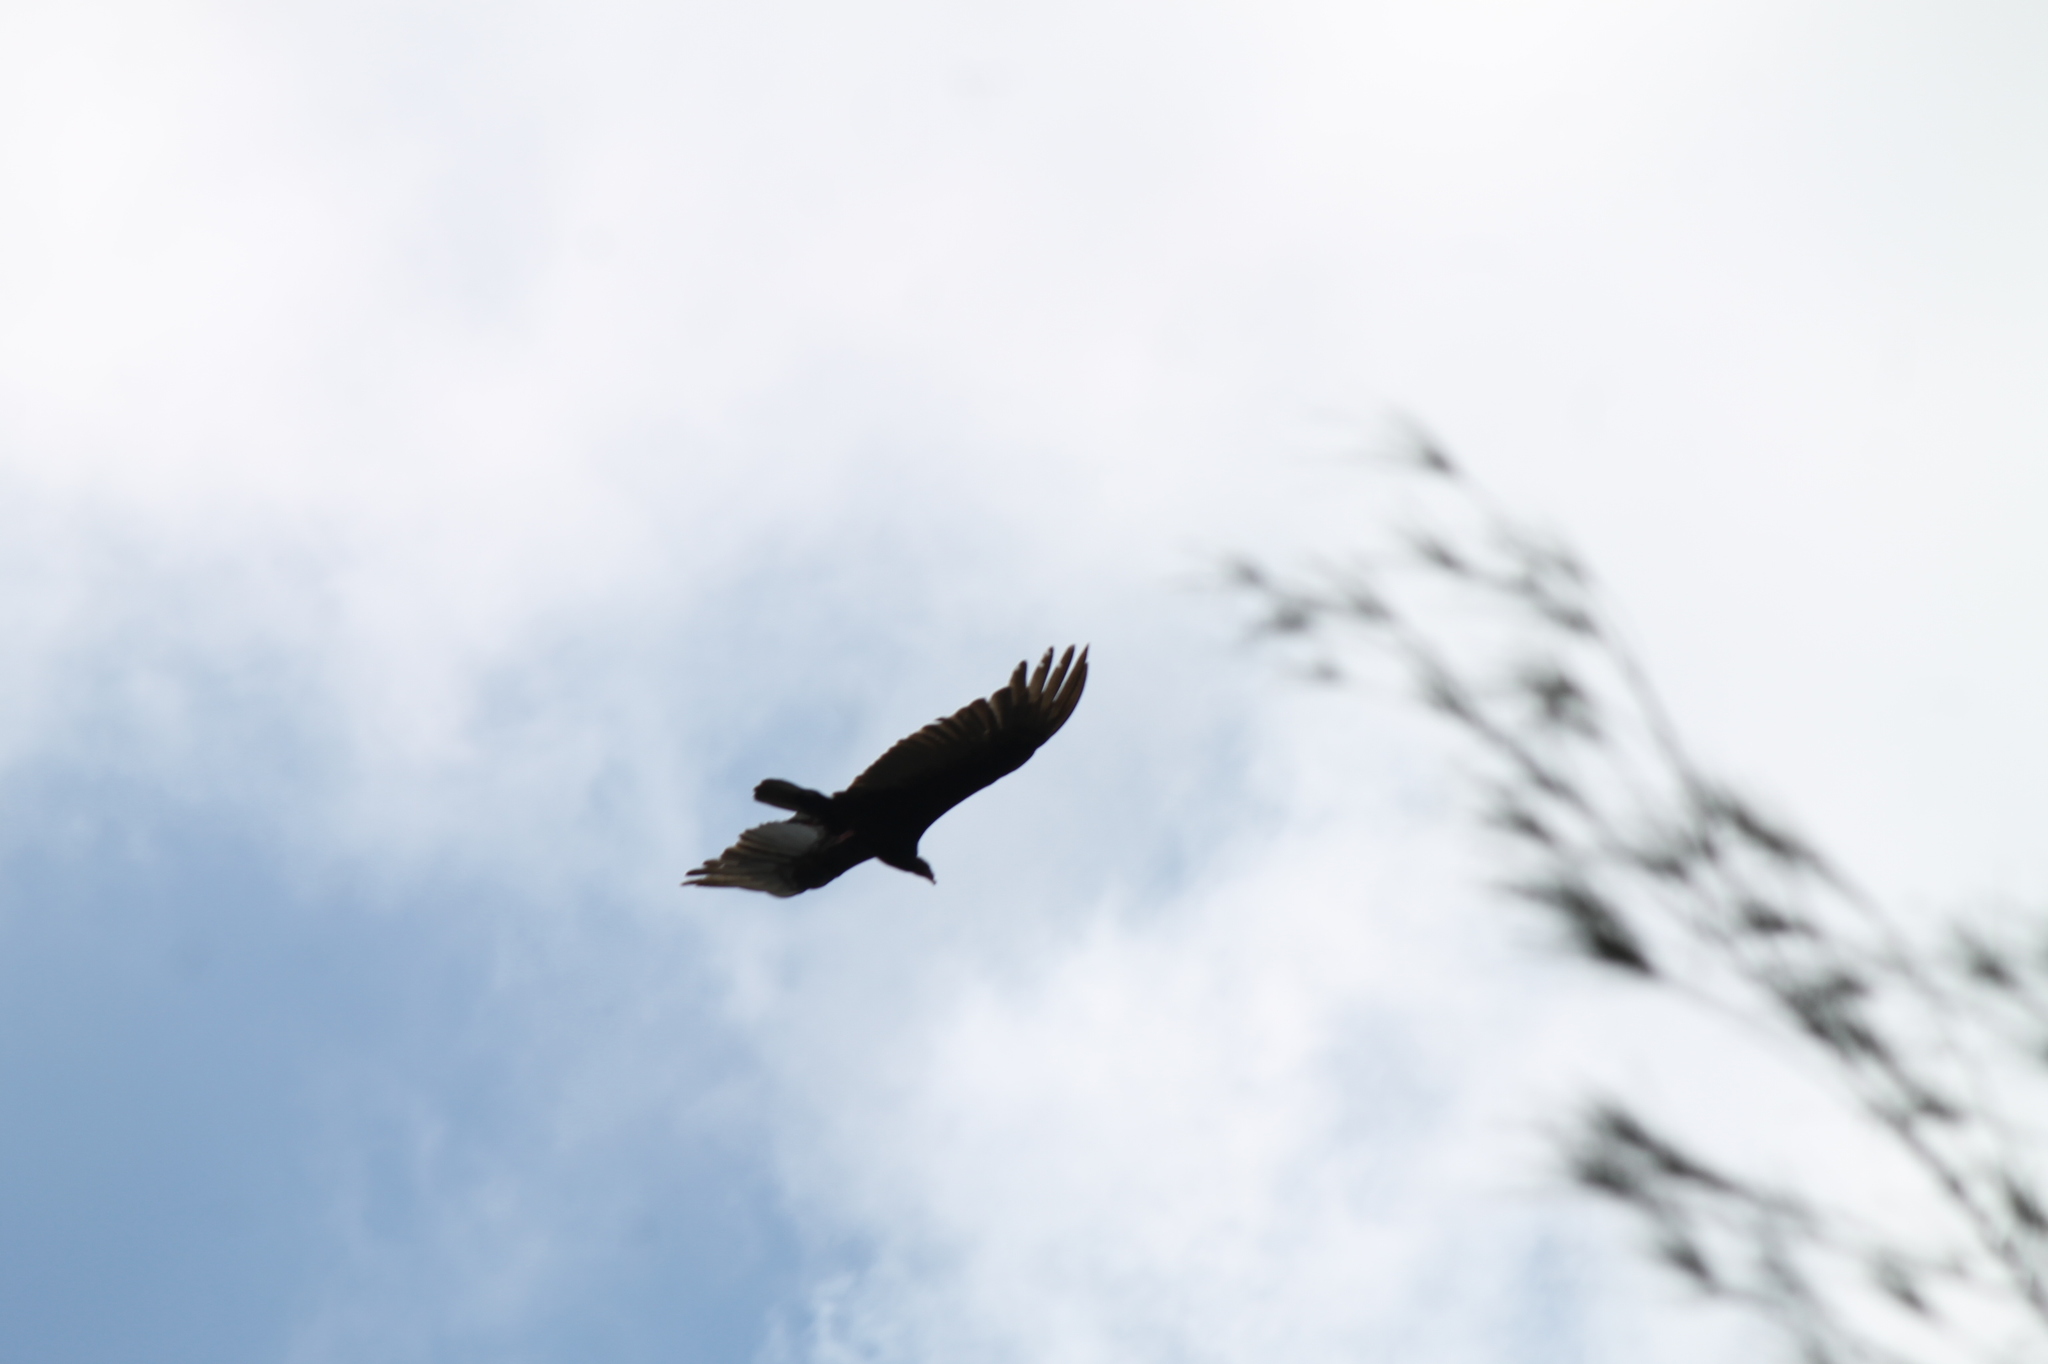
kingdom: Animalia
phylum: Chordata
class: Aves
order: Accipitriformes
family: Cathartidae
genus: Cathartes
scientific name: Cathartes aura
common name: Turkey vulture
